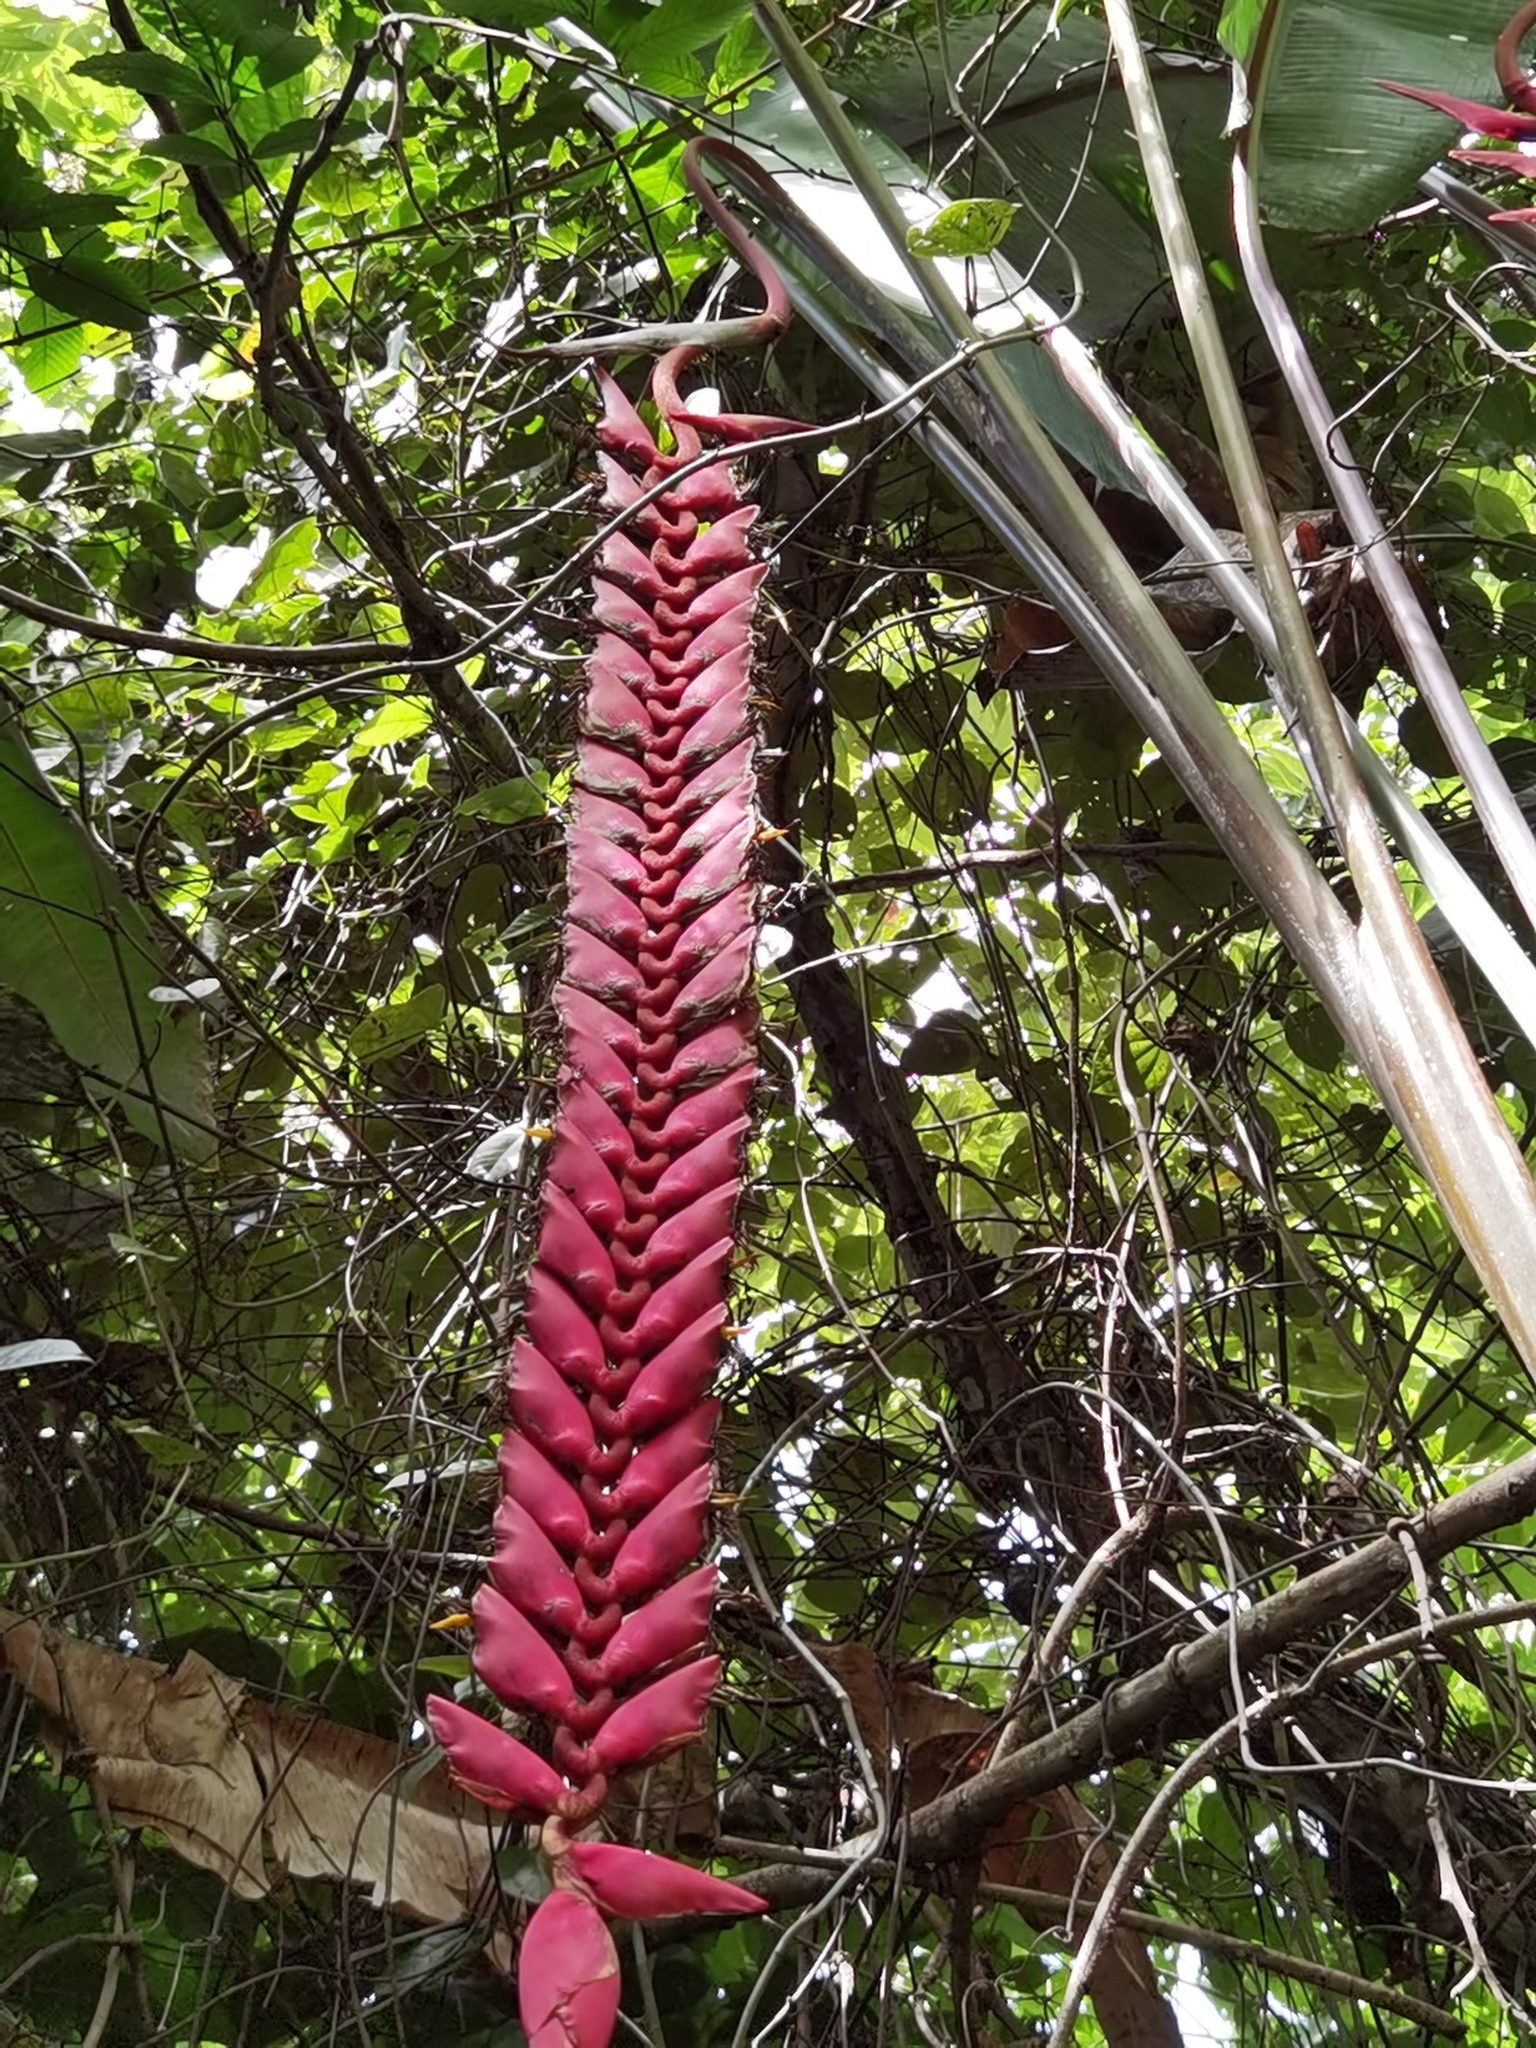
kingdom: Plantae
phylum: Tracheophyta
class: Liliopsida
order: Zingiberales
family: Heliconiaceae
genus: Heliconia
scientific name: Heliconia stilesii
